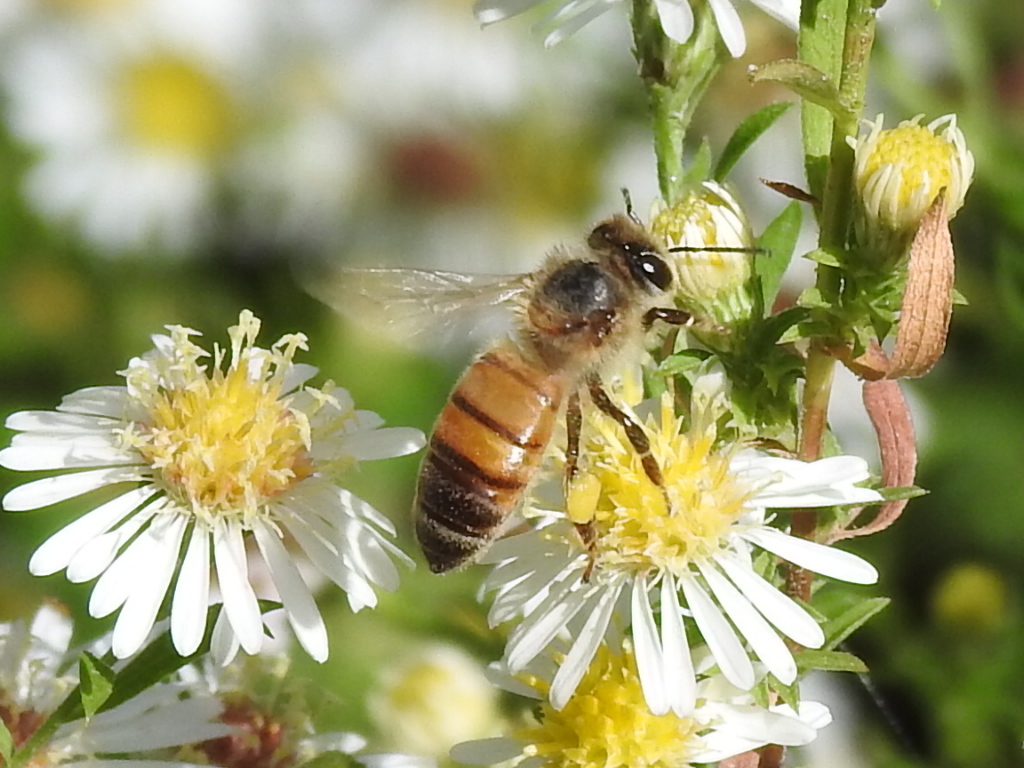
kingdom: Animalia
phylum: Arthropoda
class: Insecta
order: Hymenoptera
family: Apidae
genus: Apis
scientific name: Apis mellifera
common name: Honey bee
